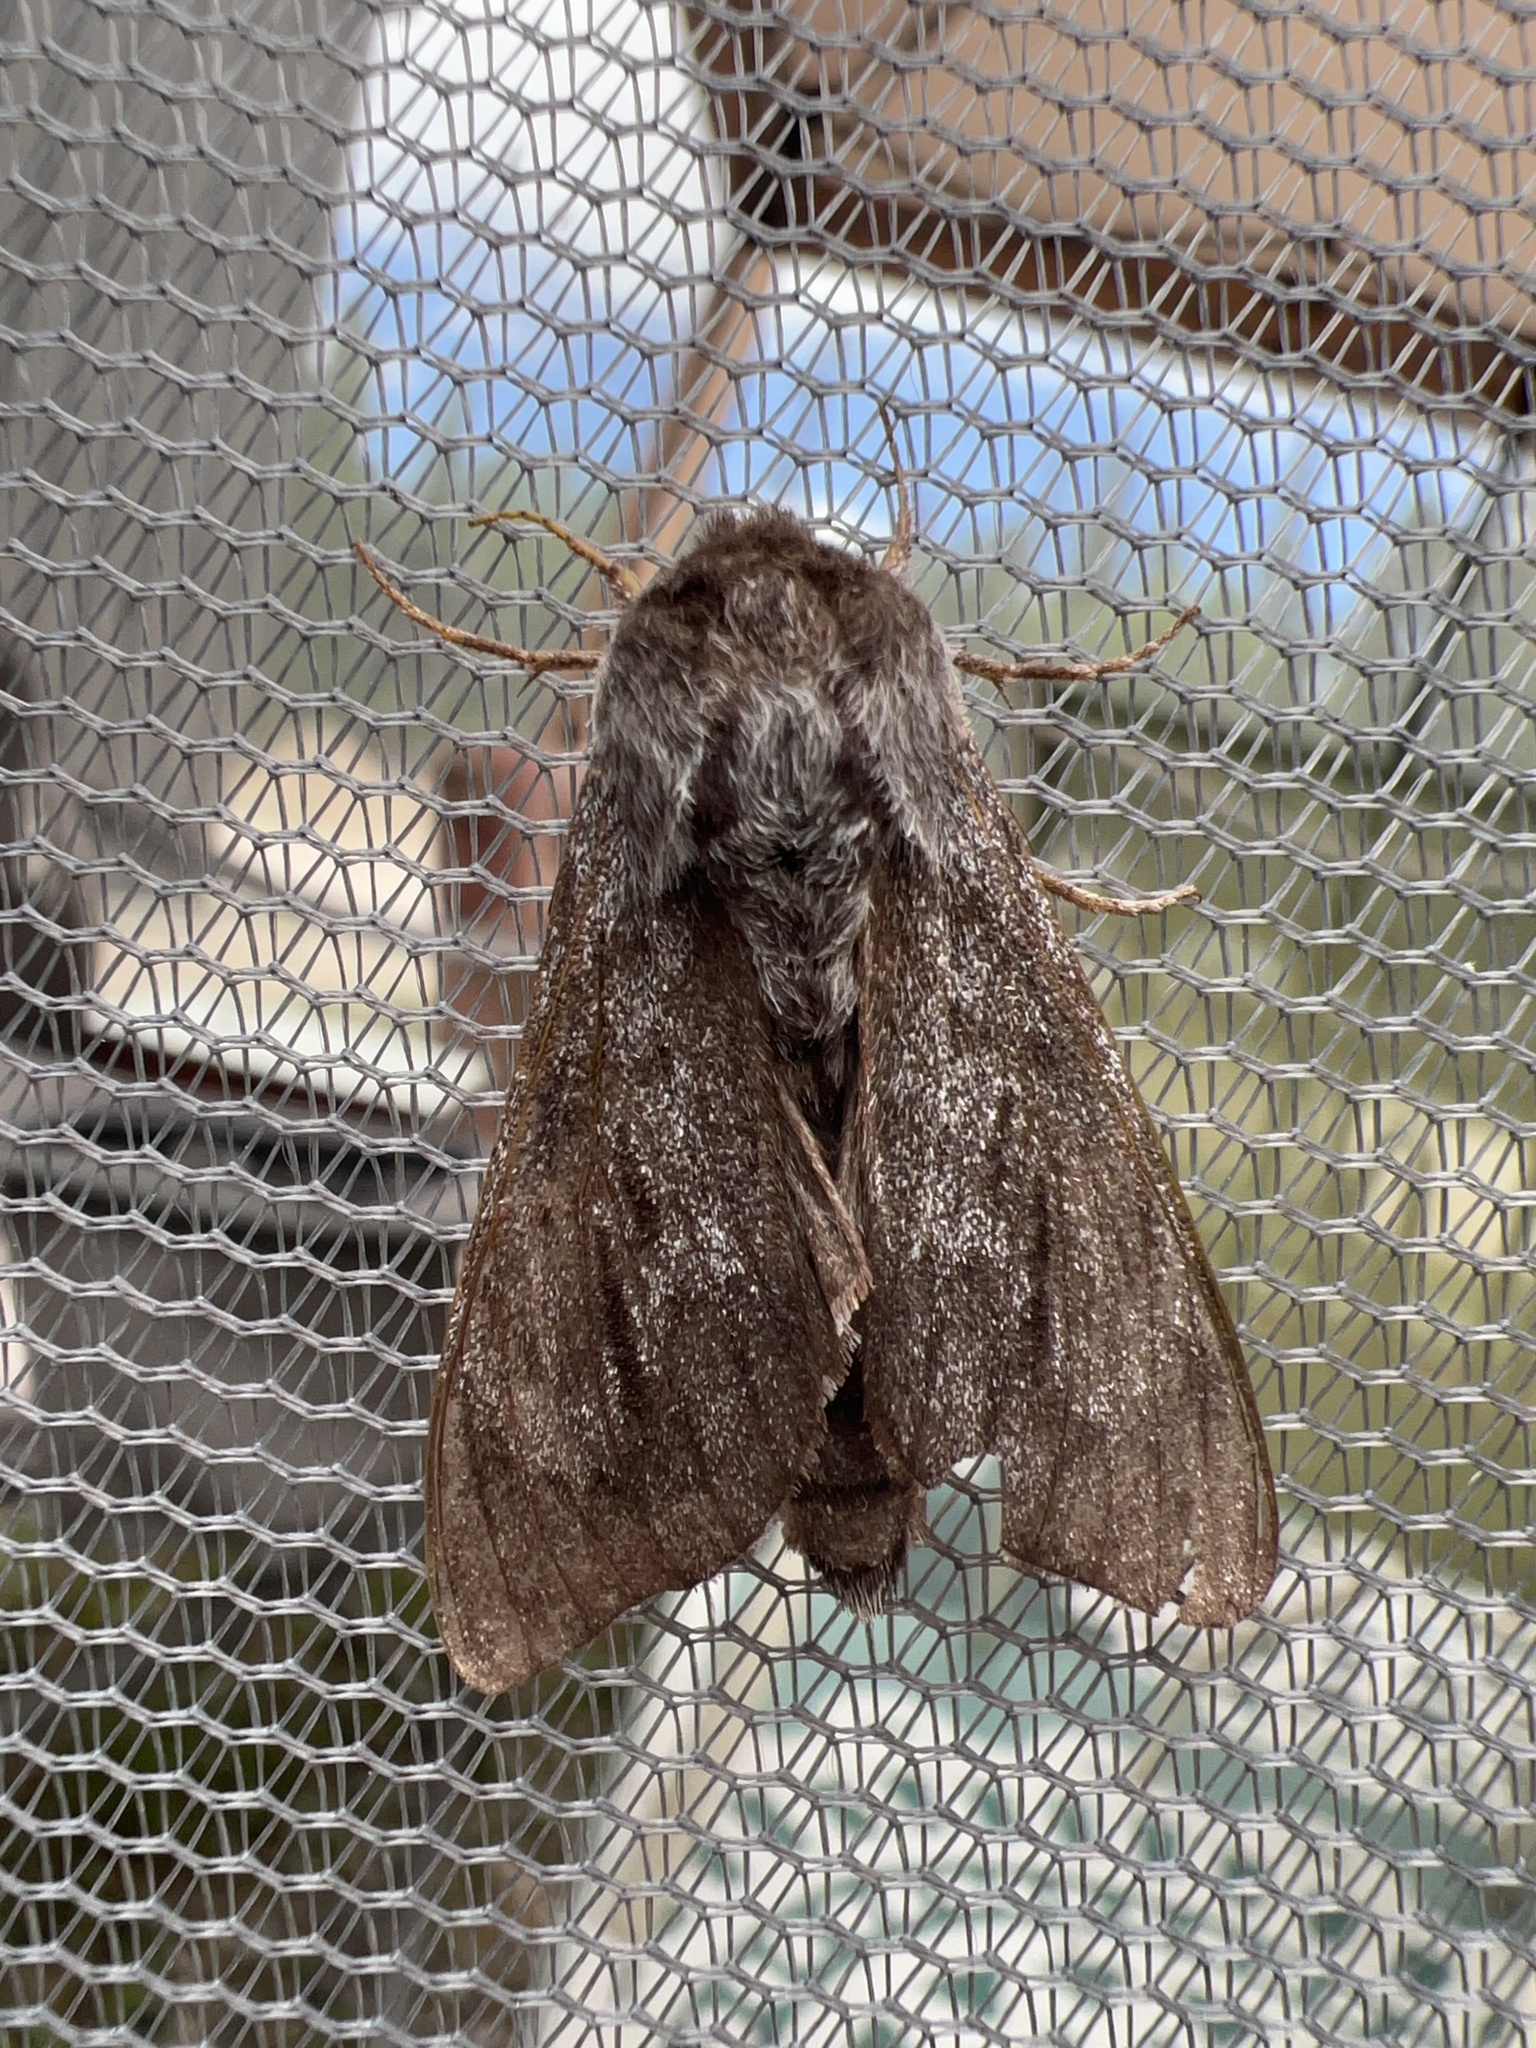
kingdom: Animalia
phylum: Arthropoda
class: Insecta
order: Lepidoptera
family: Sphingidae
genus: Lapara
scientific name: Lapara bombycoides
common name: Northern pine sphinx
